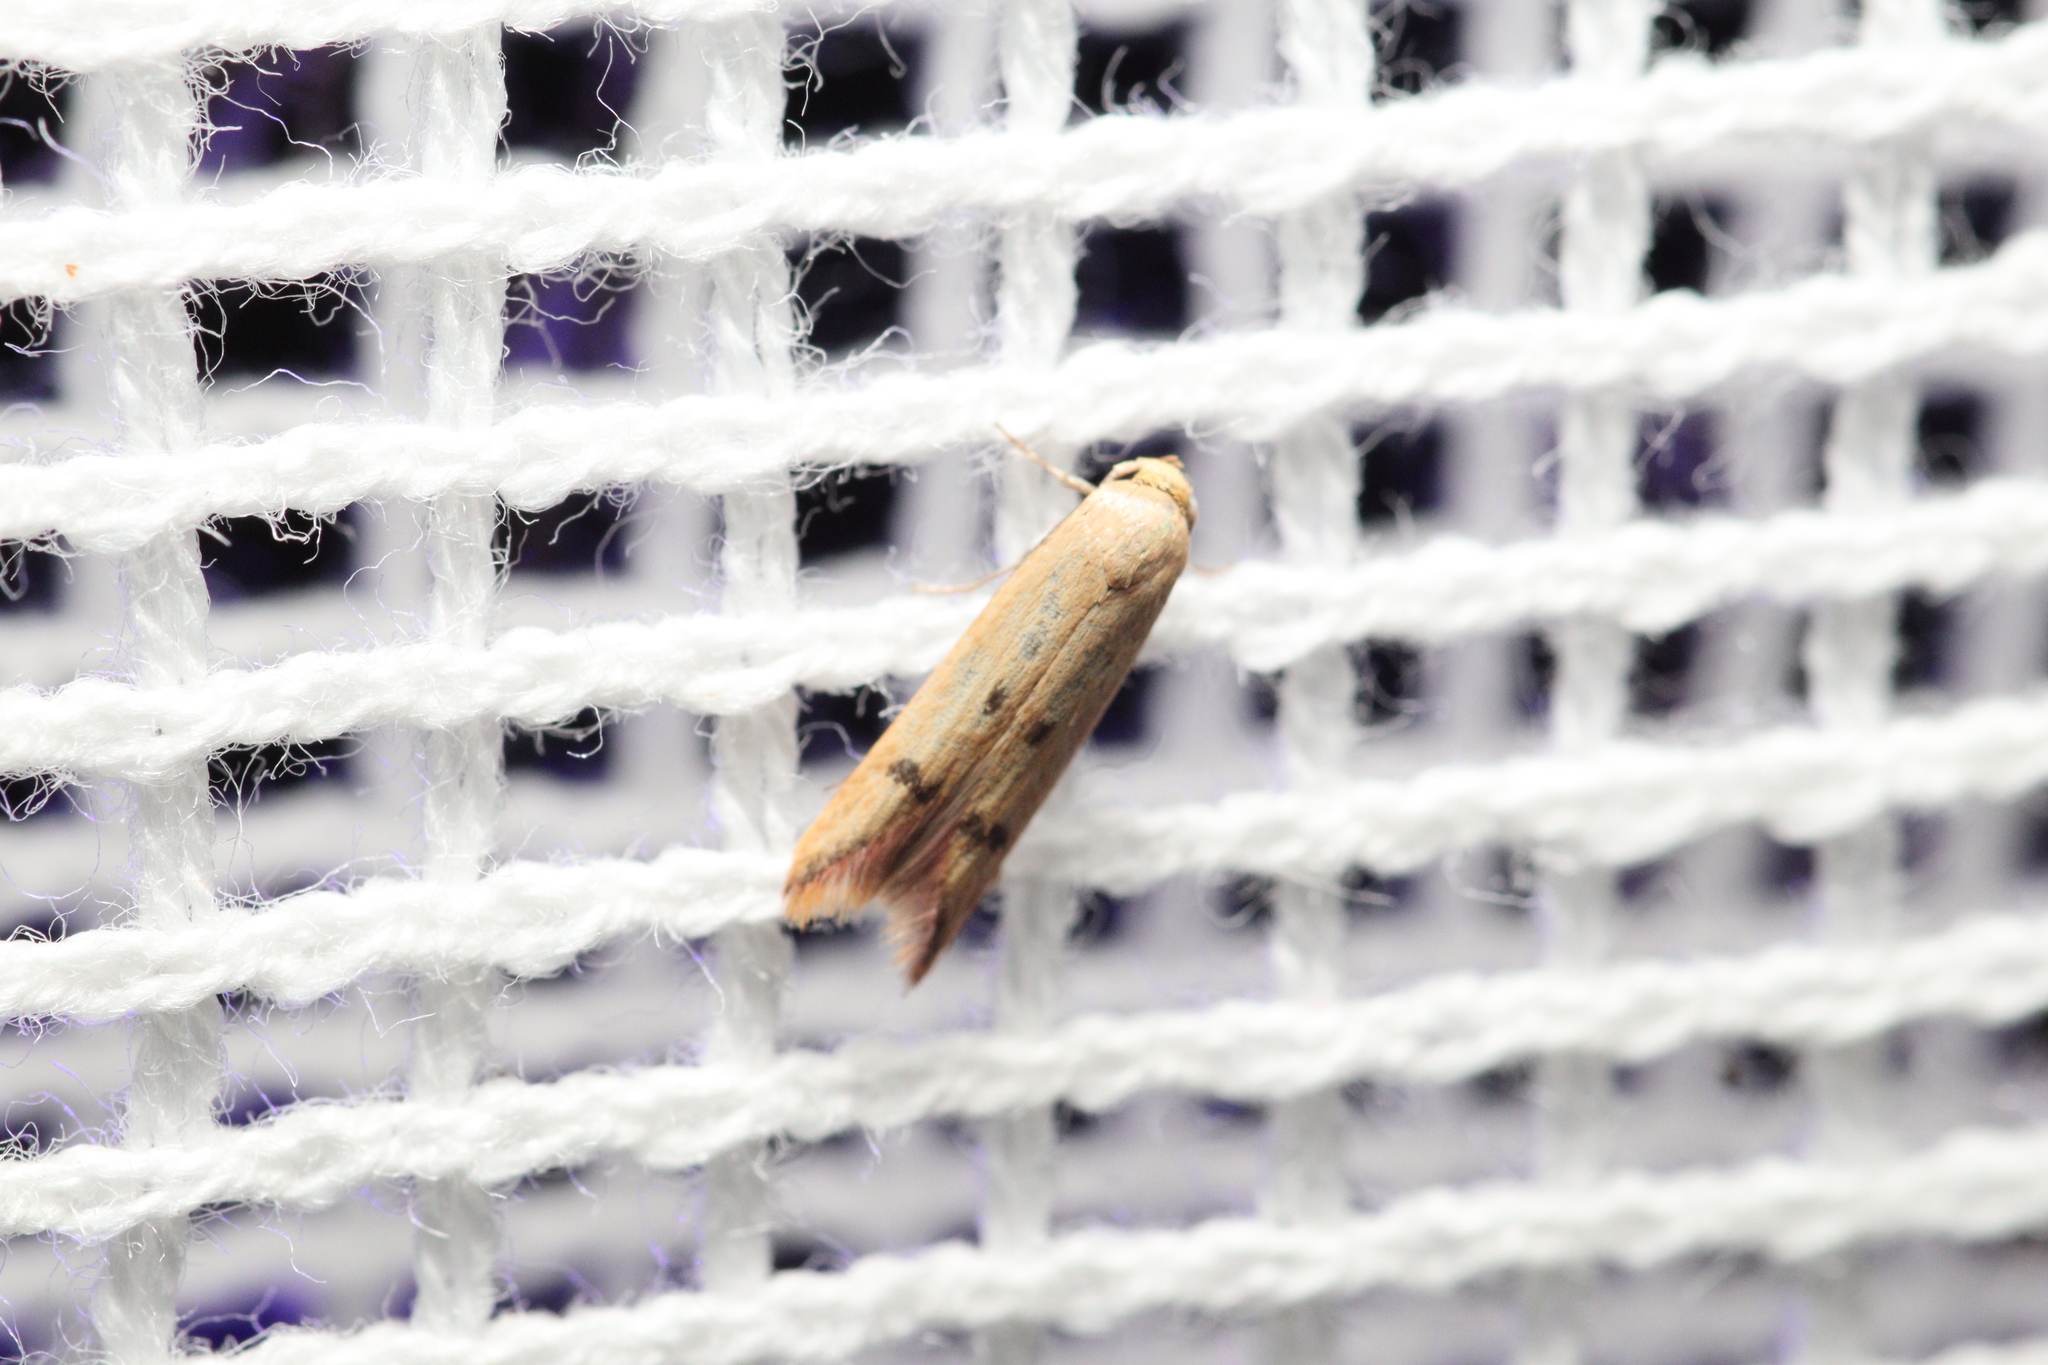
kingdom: Animalia
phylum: Arthropoda
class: Insecta
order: Lepidoptera
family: Oecophoridae
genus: Tachystola
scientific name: Tachystola hemisema
